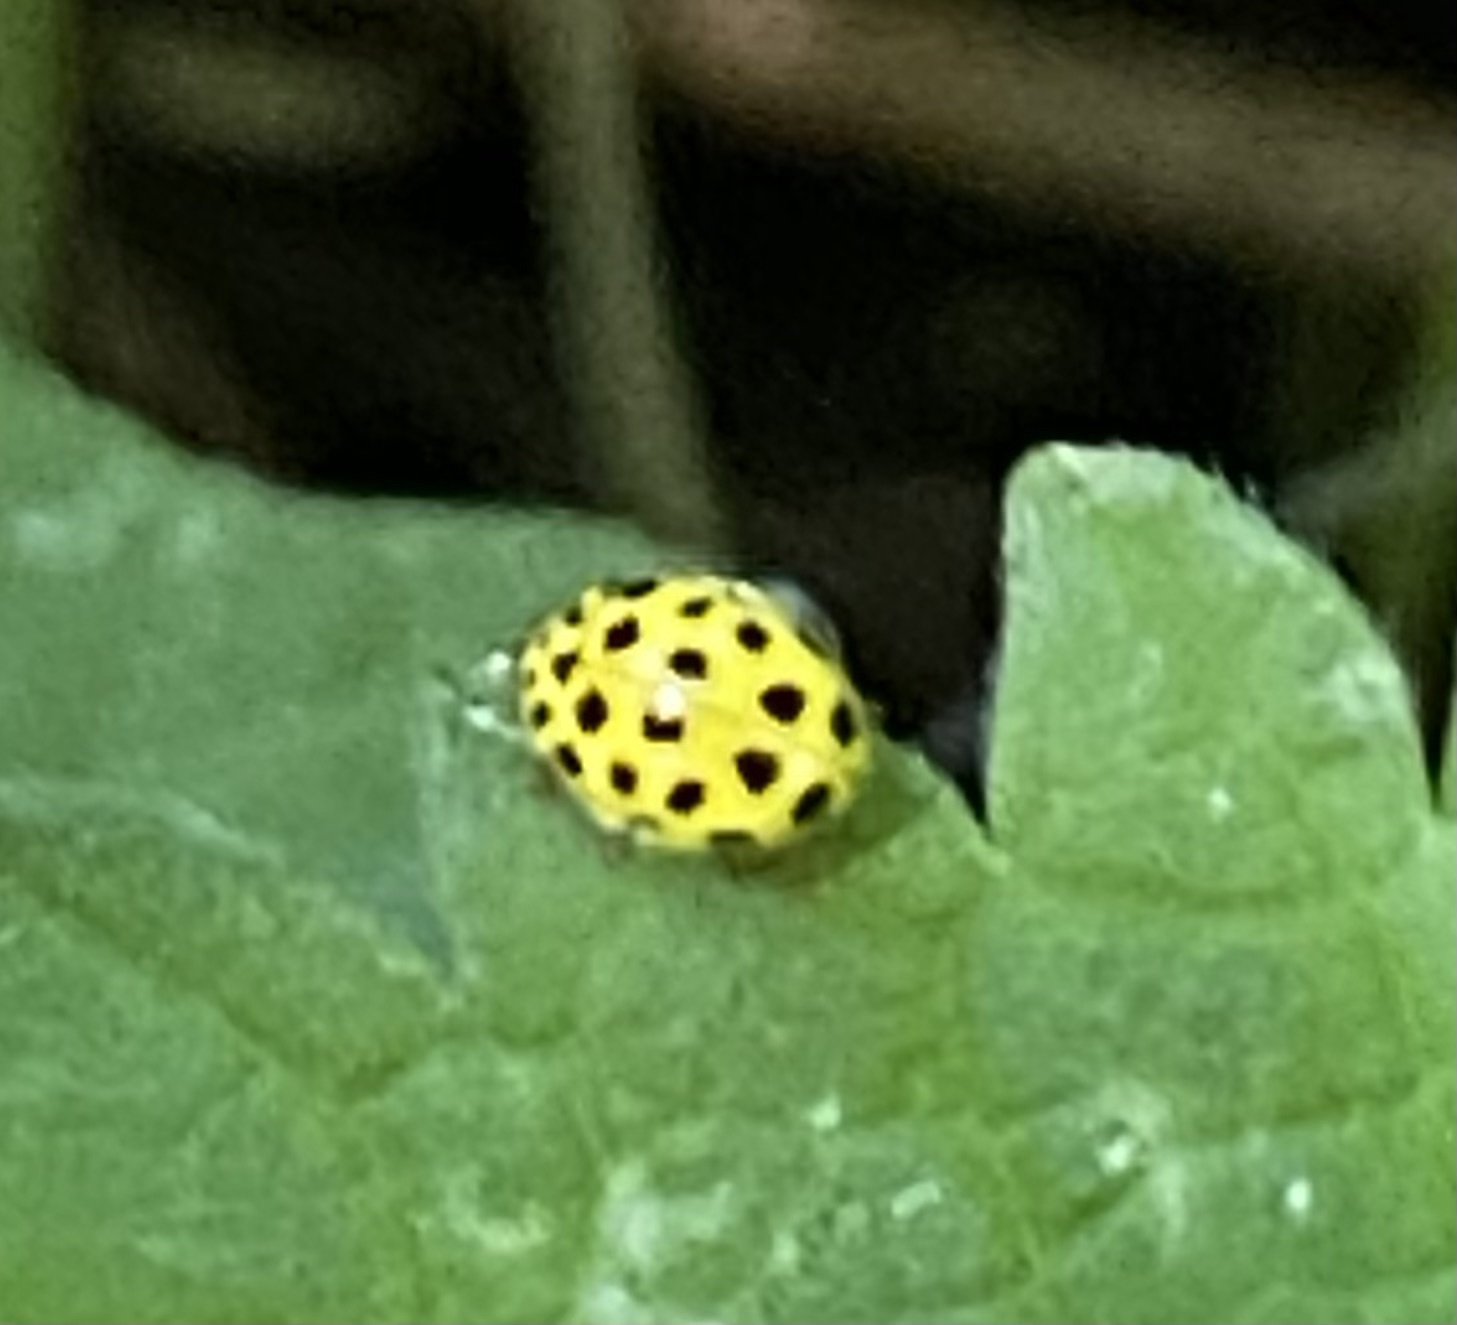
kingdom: Animalia
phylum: Arthropoda
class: Insecta
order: Coleoptera
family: Coccinellidae
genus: Psyllobora
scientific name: Psyllobora vigintiduopunctata
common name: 22-spot ladybird
